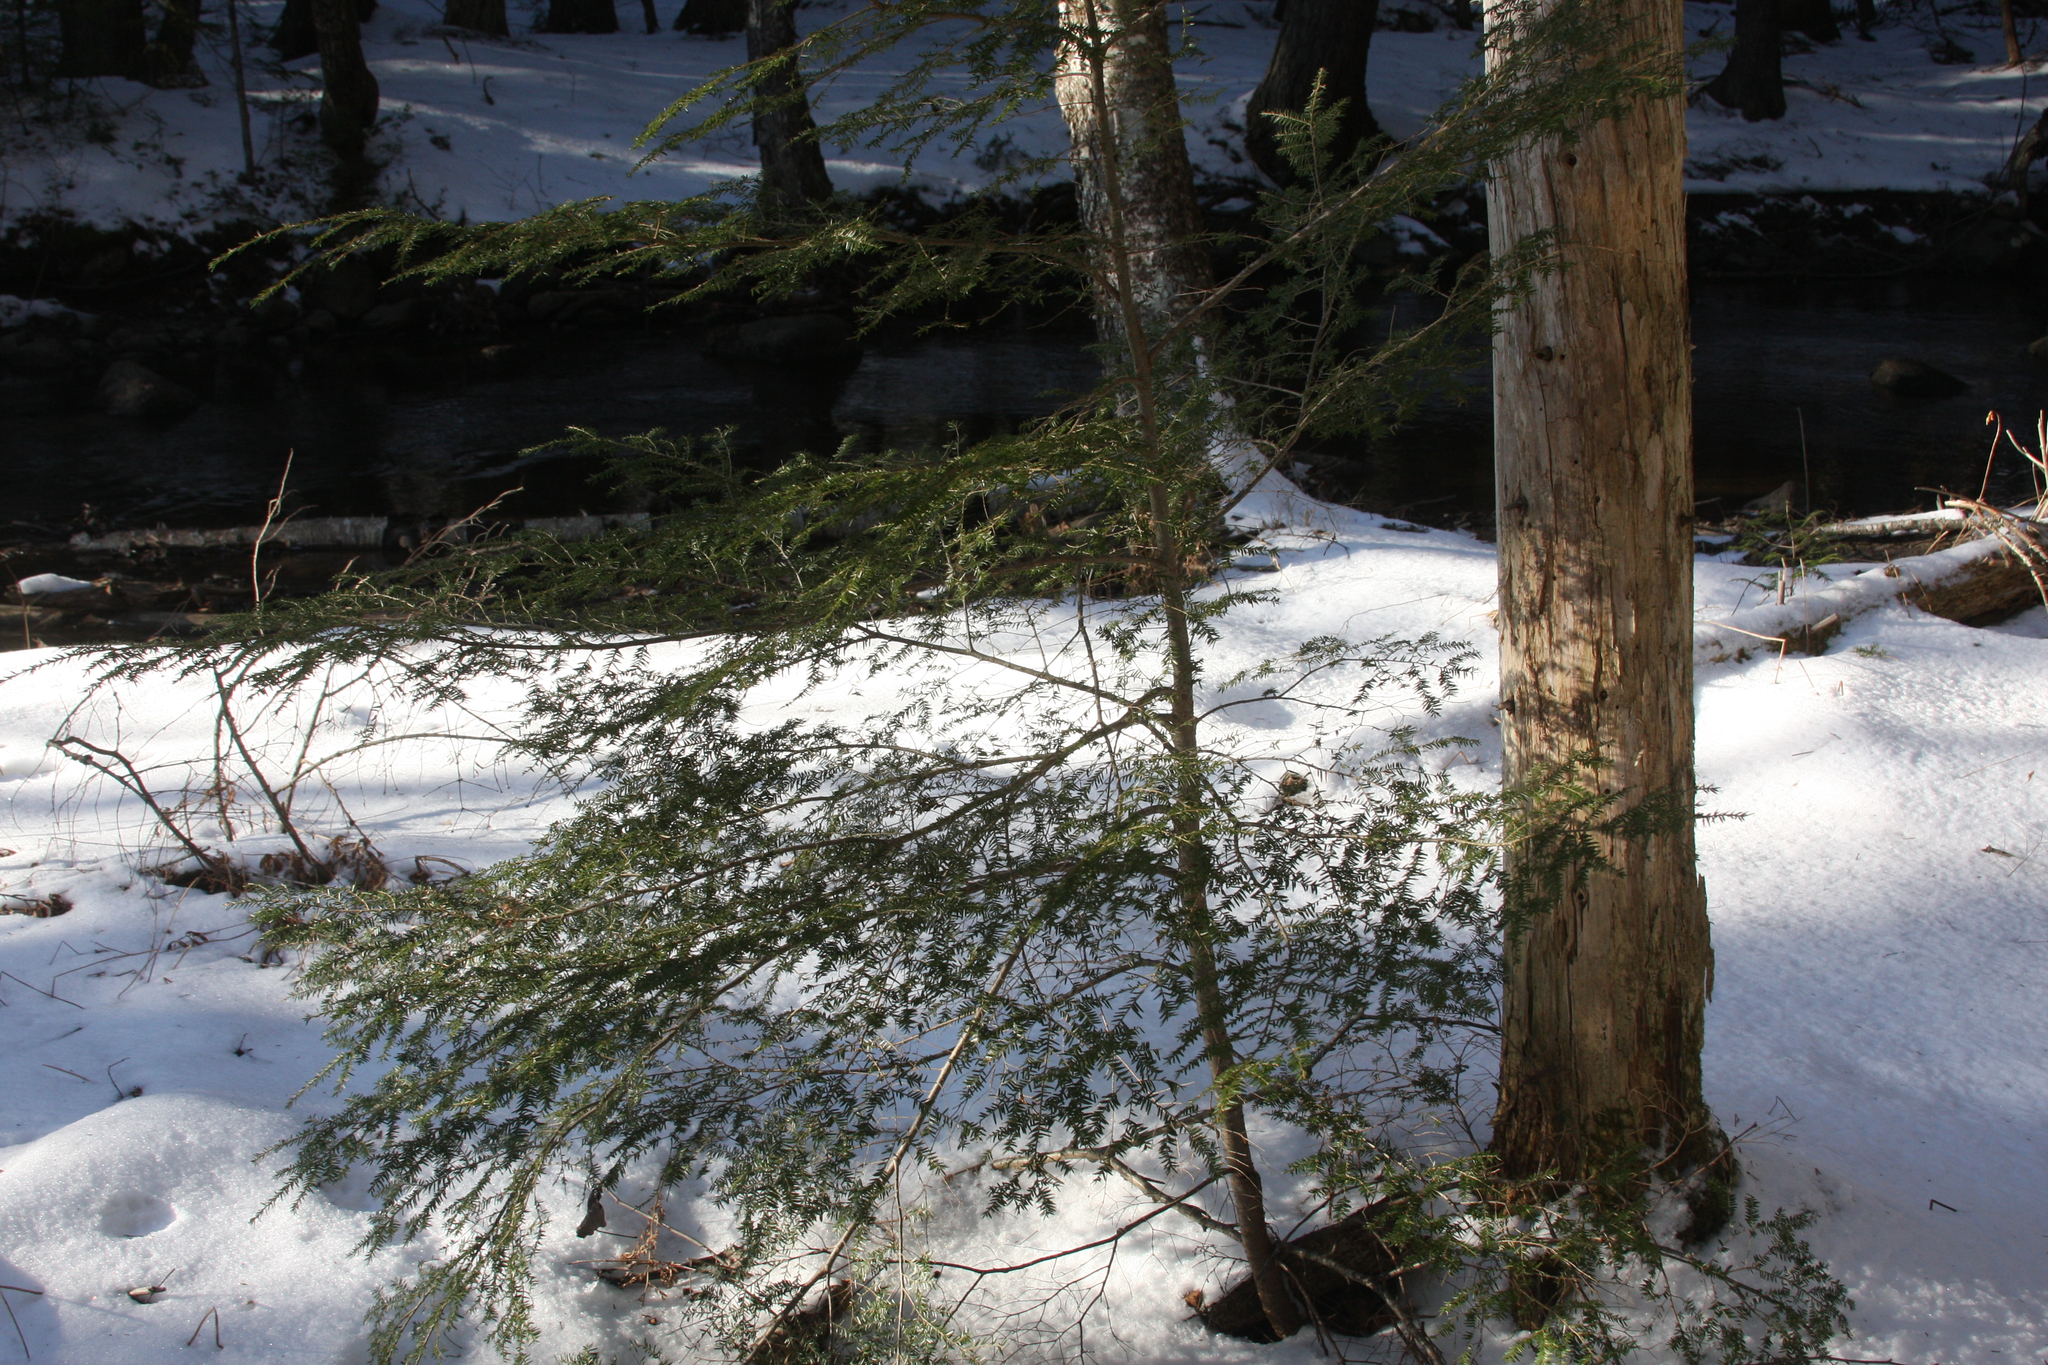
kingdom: Plantae
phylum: Tracheophyta
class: Pinopsida
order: Pinales
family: Pinaceae
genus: Tsuga
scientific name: Tsuga canadensis
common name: Eastern hemlock
